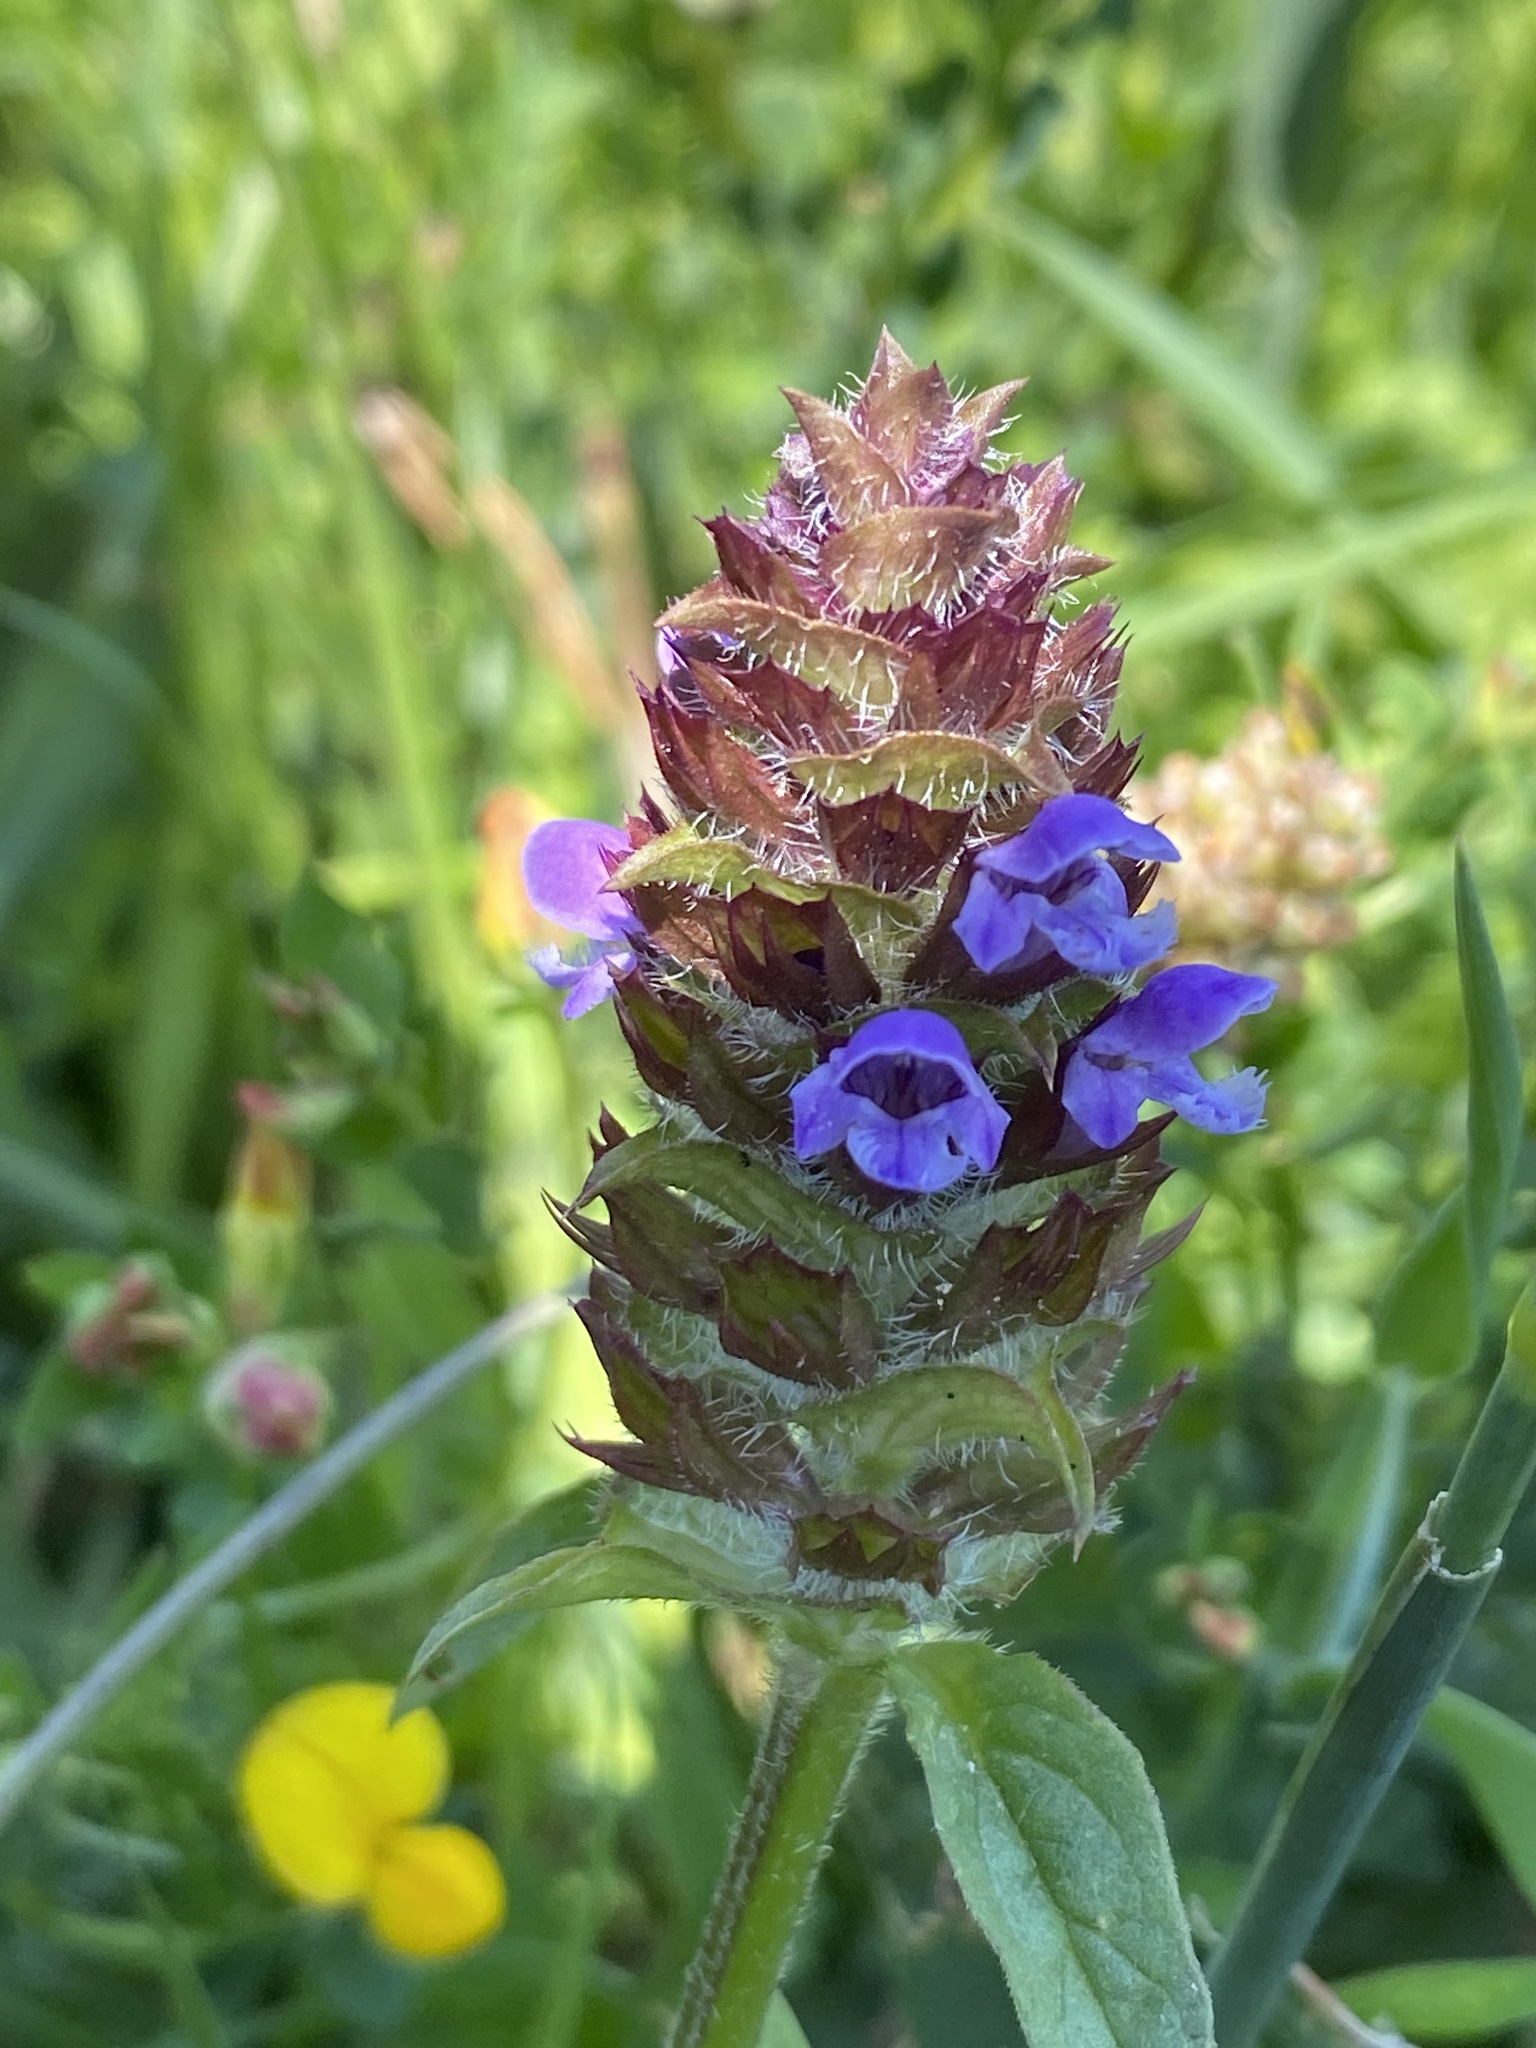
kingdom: Plantae
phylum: Tracheophyta
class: Magnoliopsida
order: Lamiales
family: Lamiaceae
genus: Prunella
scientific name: Prunella vulgaris
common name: Heal-all
